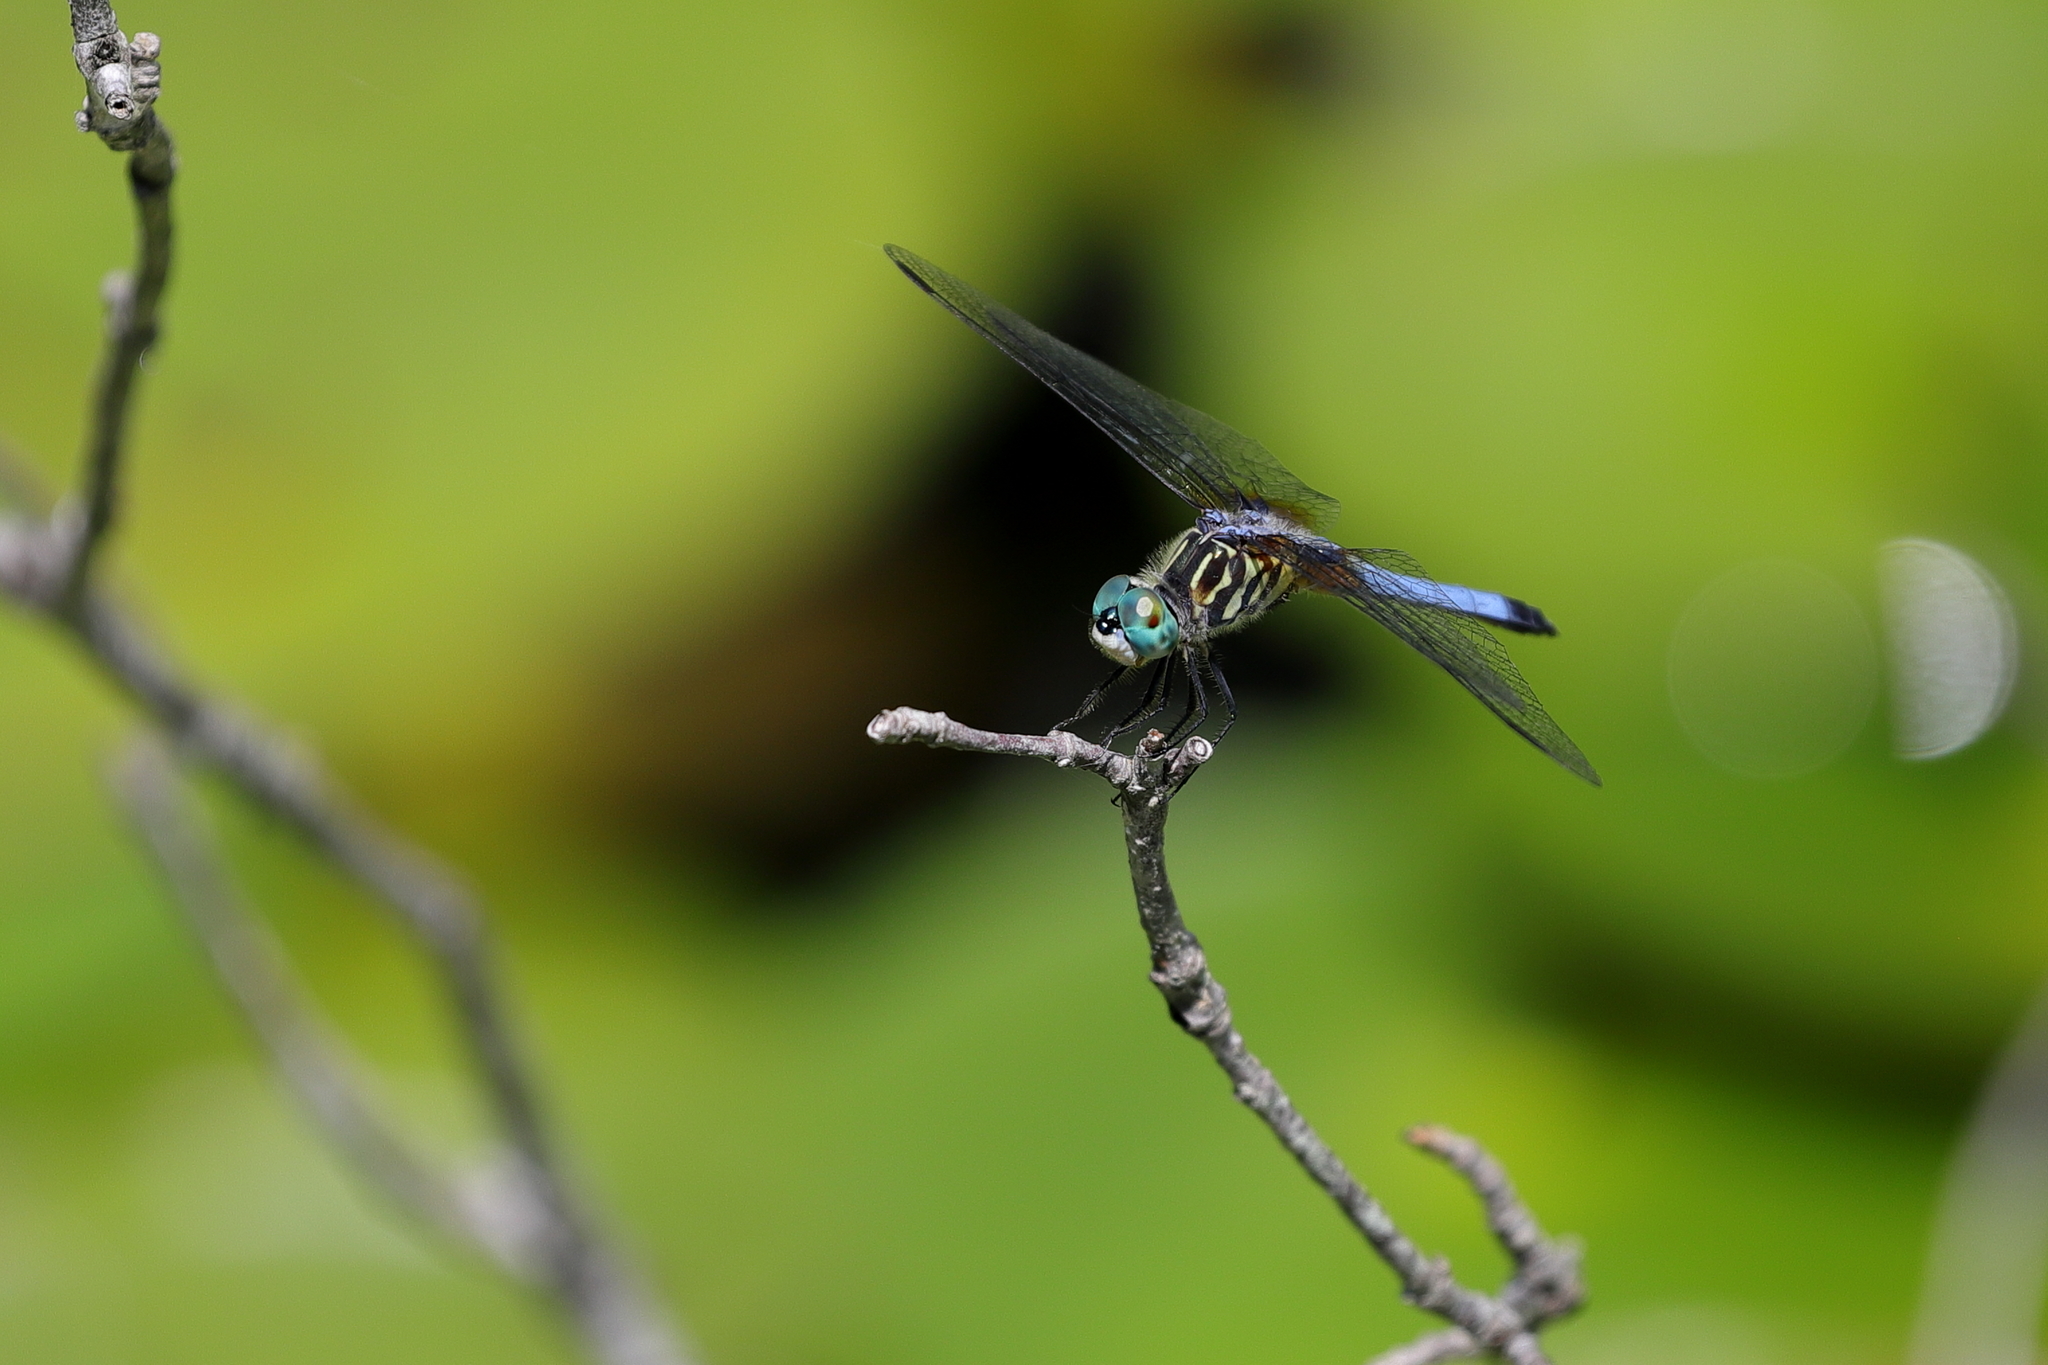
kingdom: Animalia
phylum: Arthropoda
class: Insecta
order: Odonata
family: Libellulidae
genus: Pachydiplax
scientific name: Pachydiplax longipennis
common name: Blue dasher
